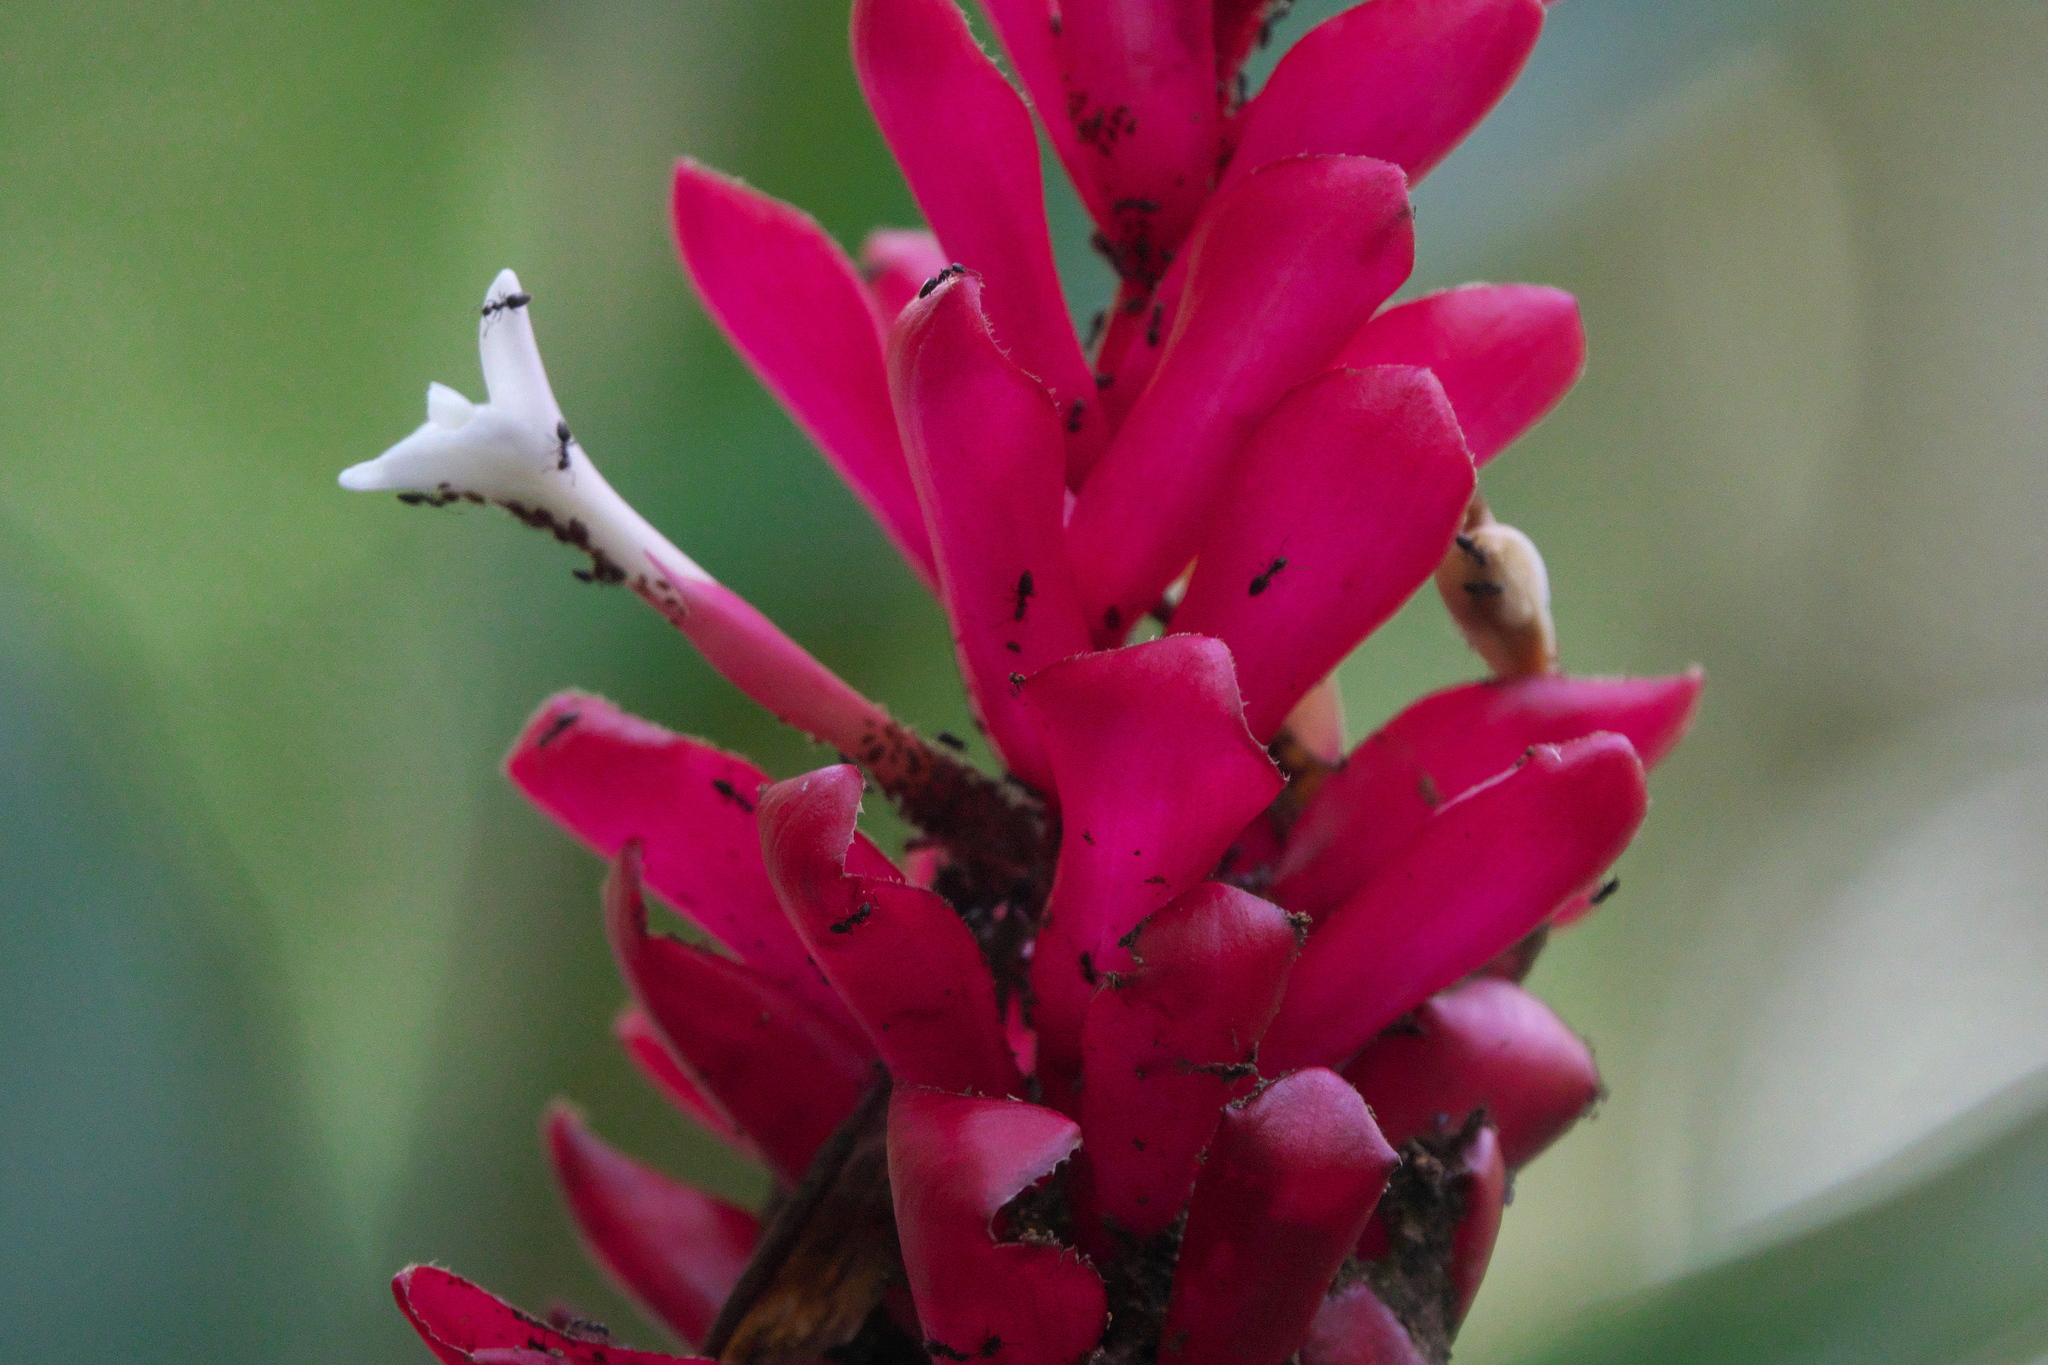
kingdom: Plantae
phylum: Tracheophyta
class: Liliopsida
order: Zingiberales
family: Zingiberaceae
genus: Alpinia
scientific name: Alpinia purpurata
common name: Red ginger
